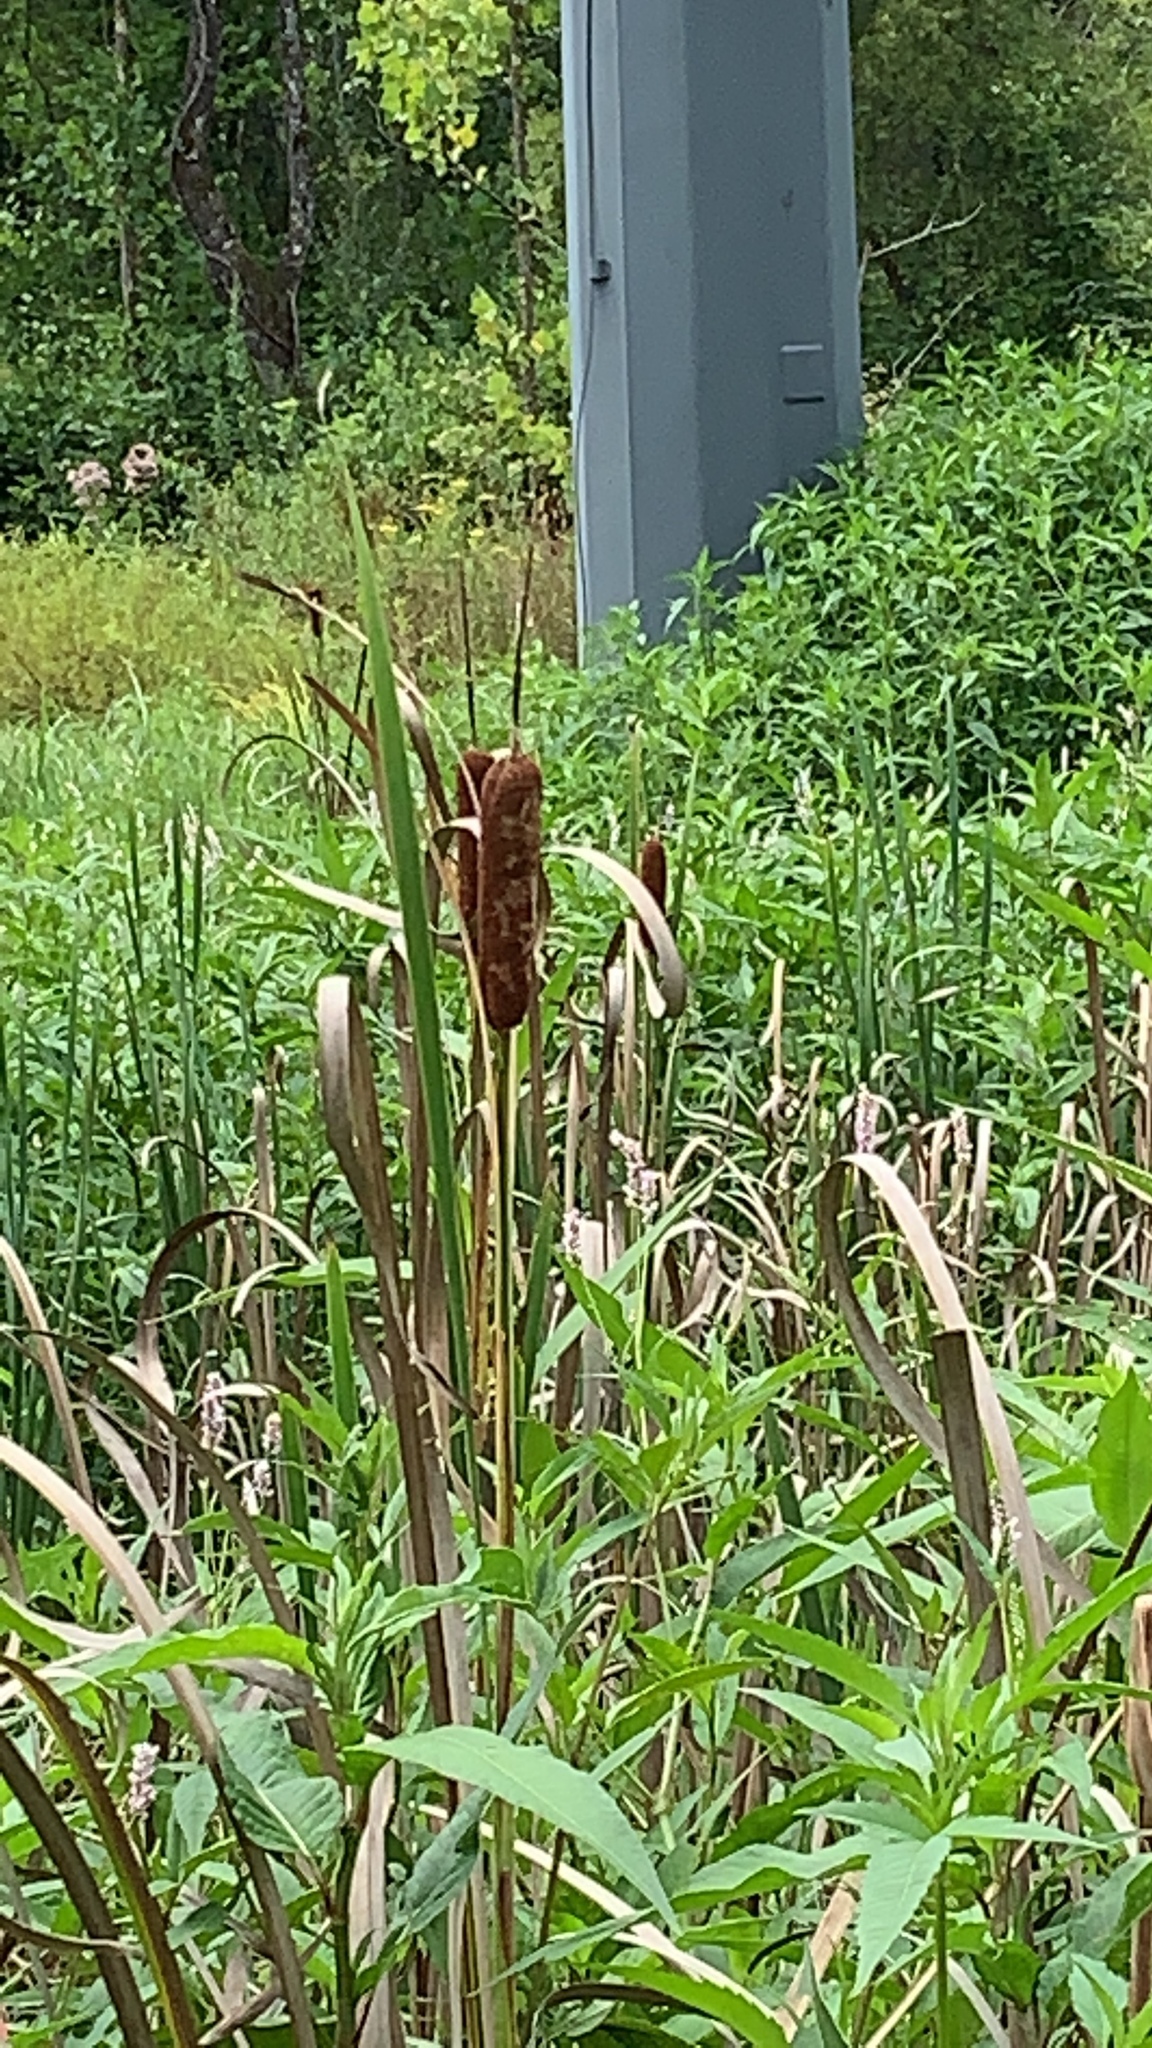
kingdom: Plantae
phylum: Tracheophyta
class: Liliopsida
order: Poales
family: Typhaceae
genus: Typha
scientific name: Typha latifolia
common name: Broadleaf cattail
